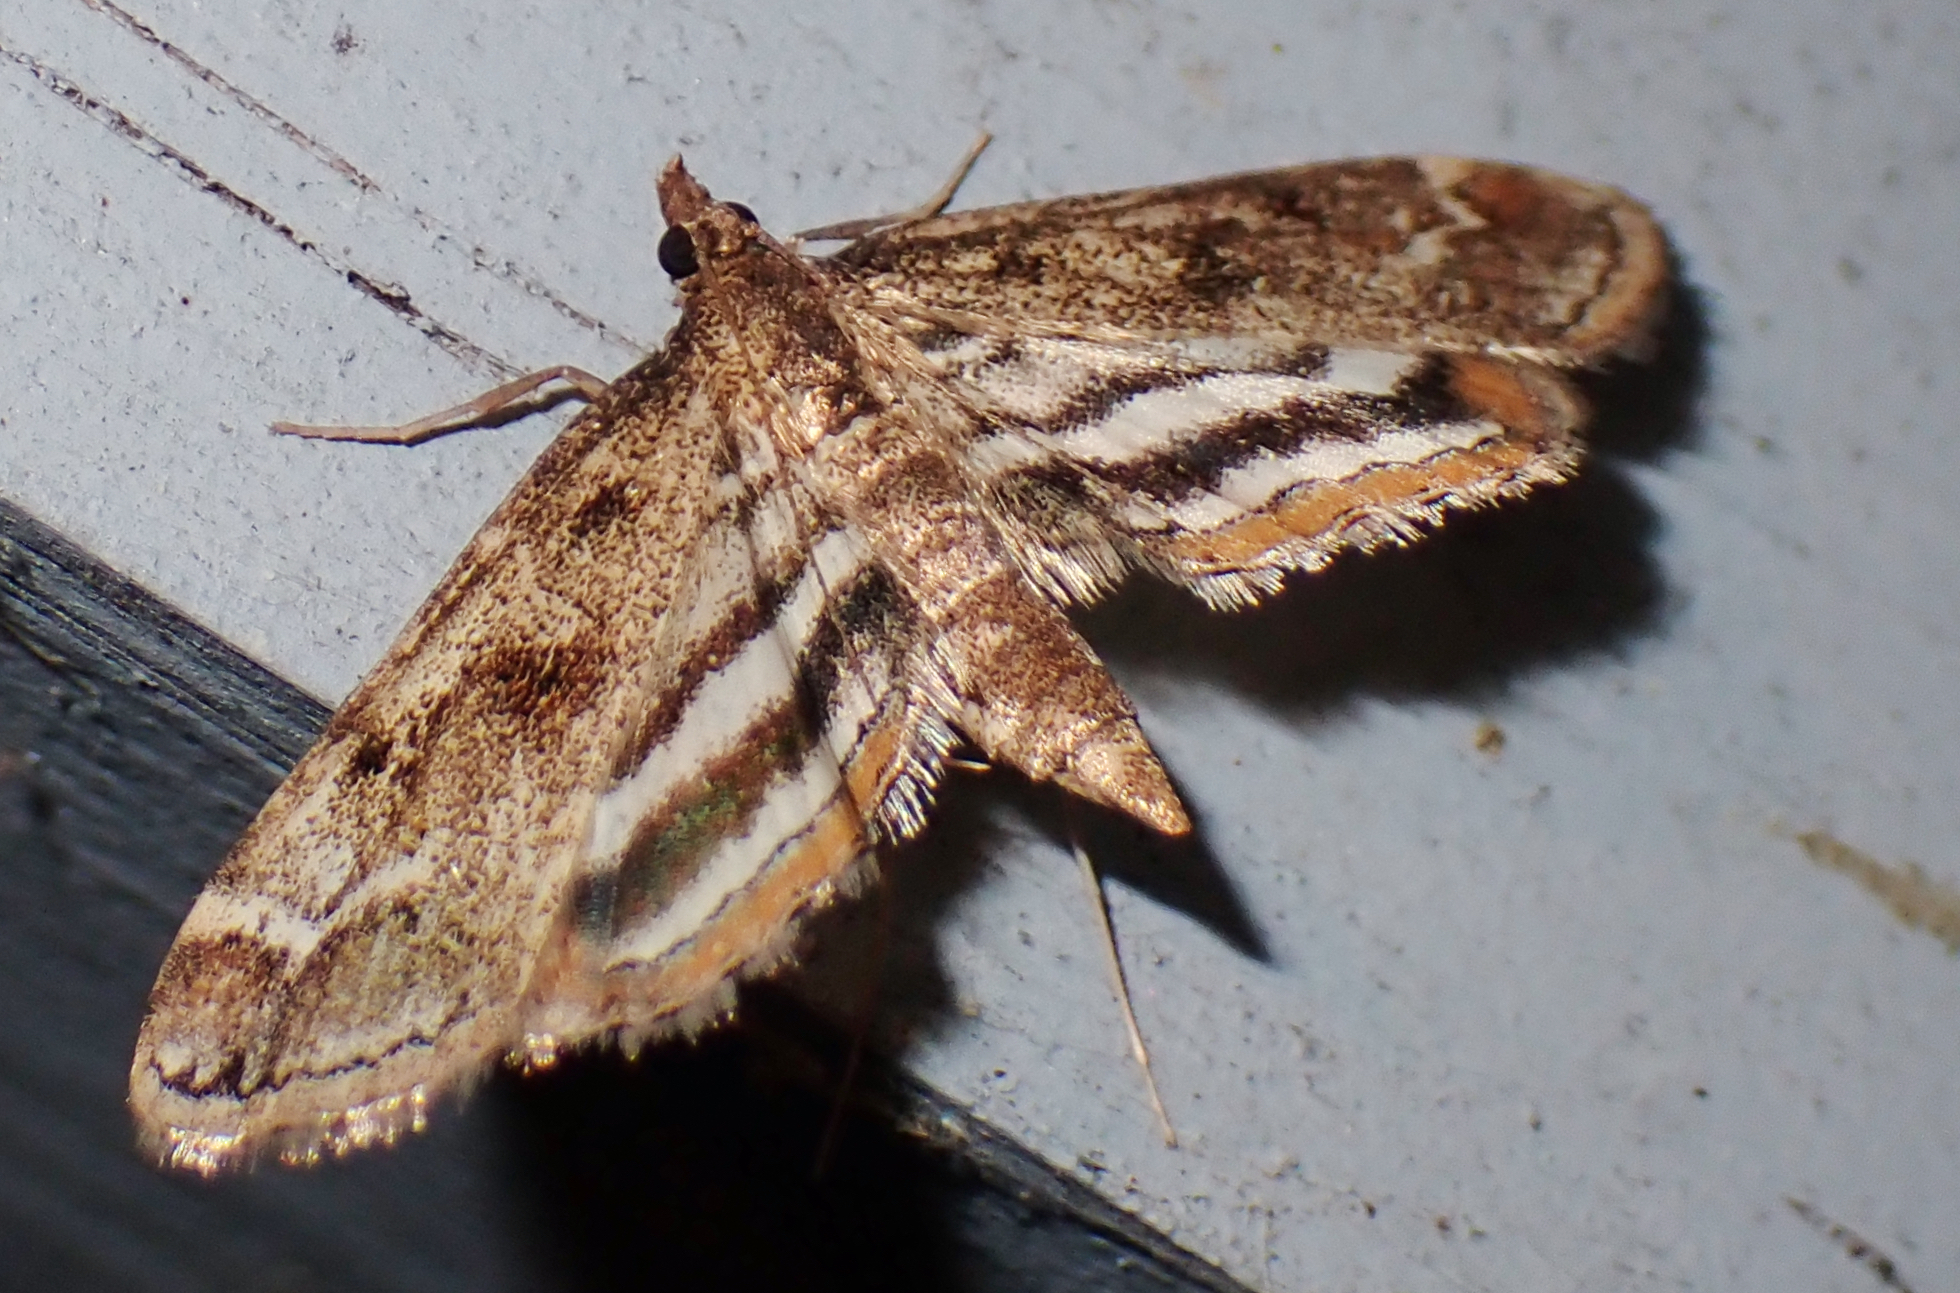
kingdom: Animalia
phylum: Arthropoda
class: Insecta
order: Lepidoptera
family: Crambidae
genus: Parapoynx
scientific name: Parapoynx obscuralis
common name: American china-mark
